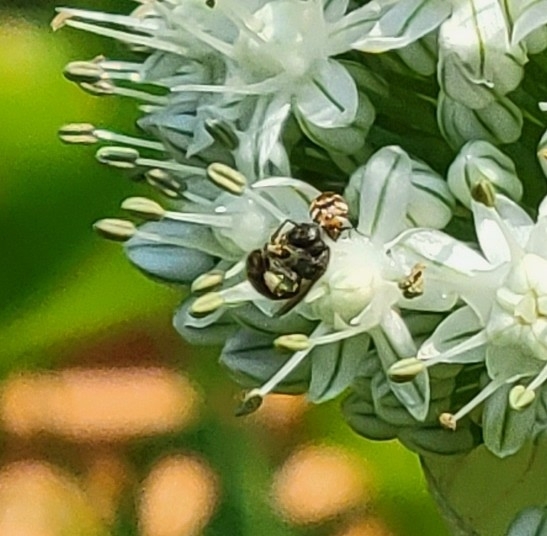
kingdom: Animalia
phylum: Arthropoda
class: Insecta
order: Hymenoptera
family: Halictidae
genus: Dialictus
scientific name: Dialictus
